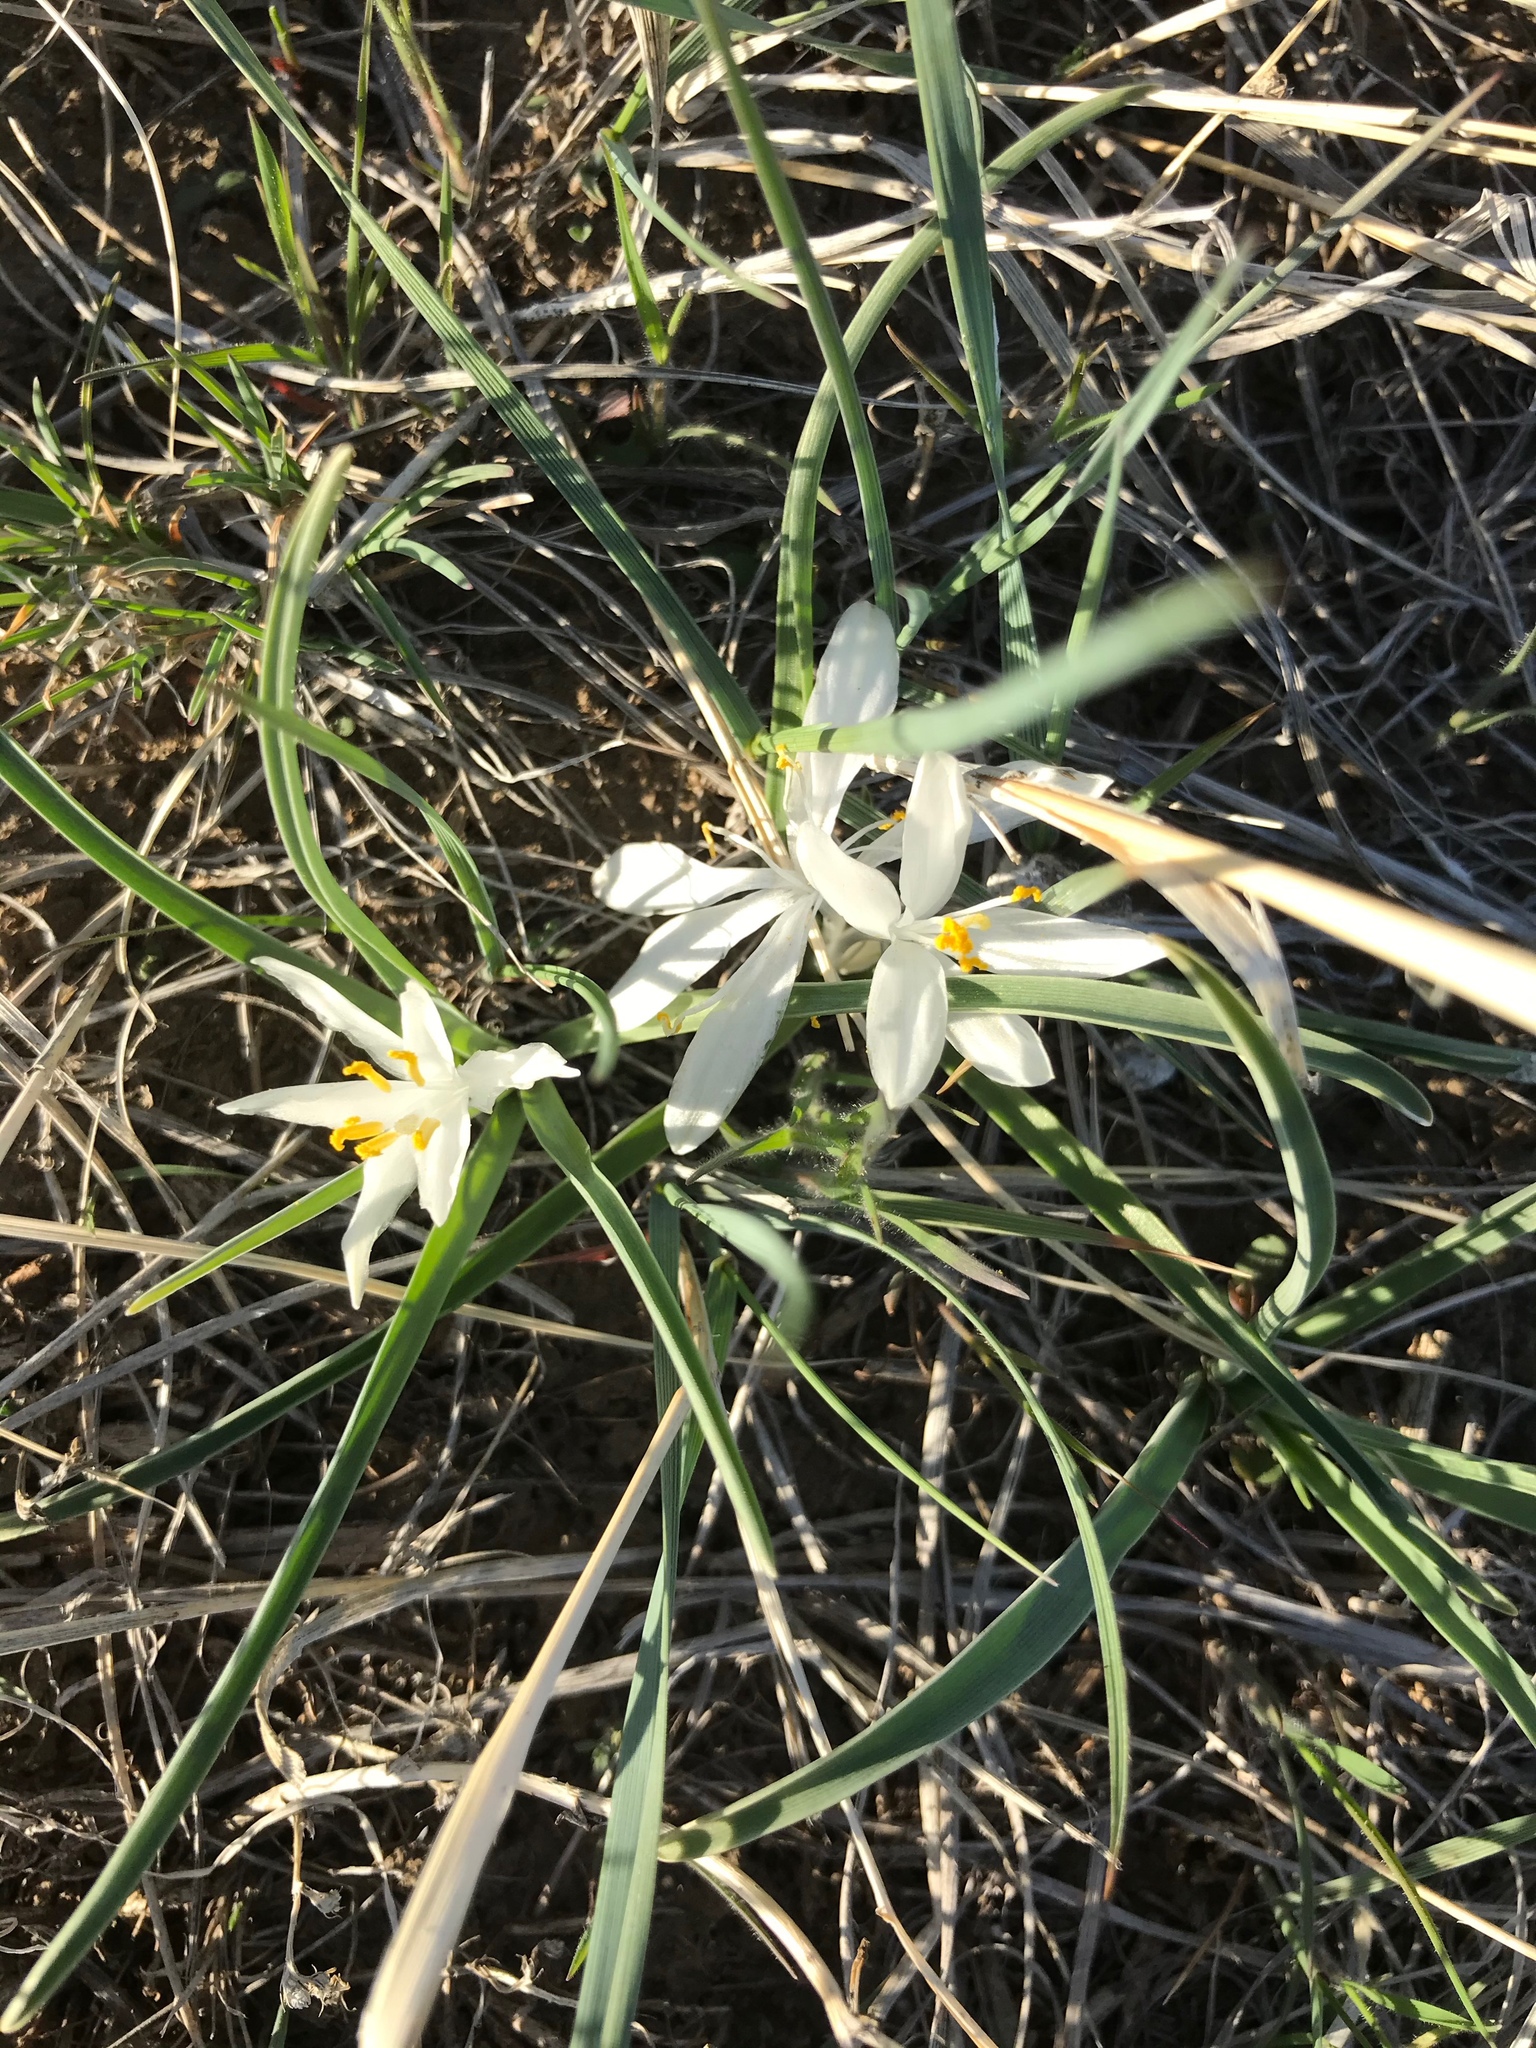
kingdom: Plantae
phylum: Tracheophyta
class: Liliopsida
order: Asparagales
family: Asparagaceae
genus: Leucocrinum
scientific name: Leucocrinum montanum
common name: Mountain-lily
